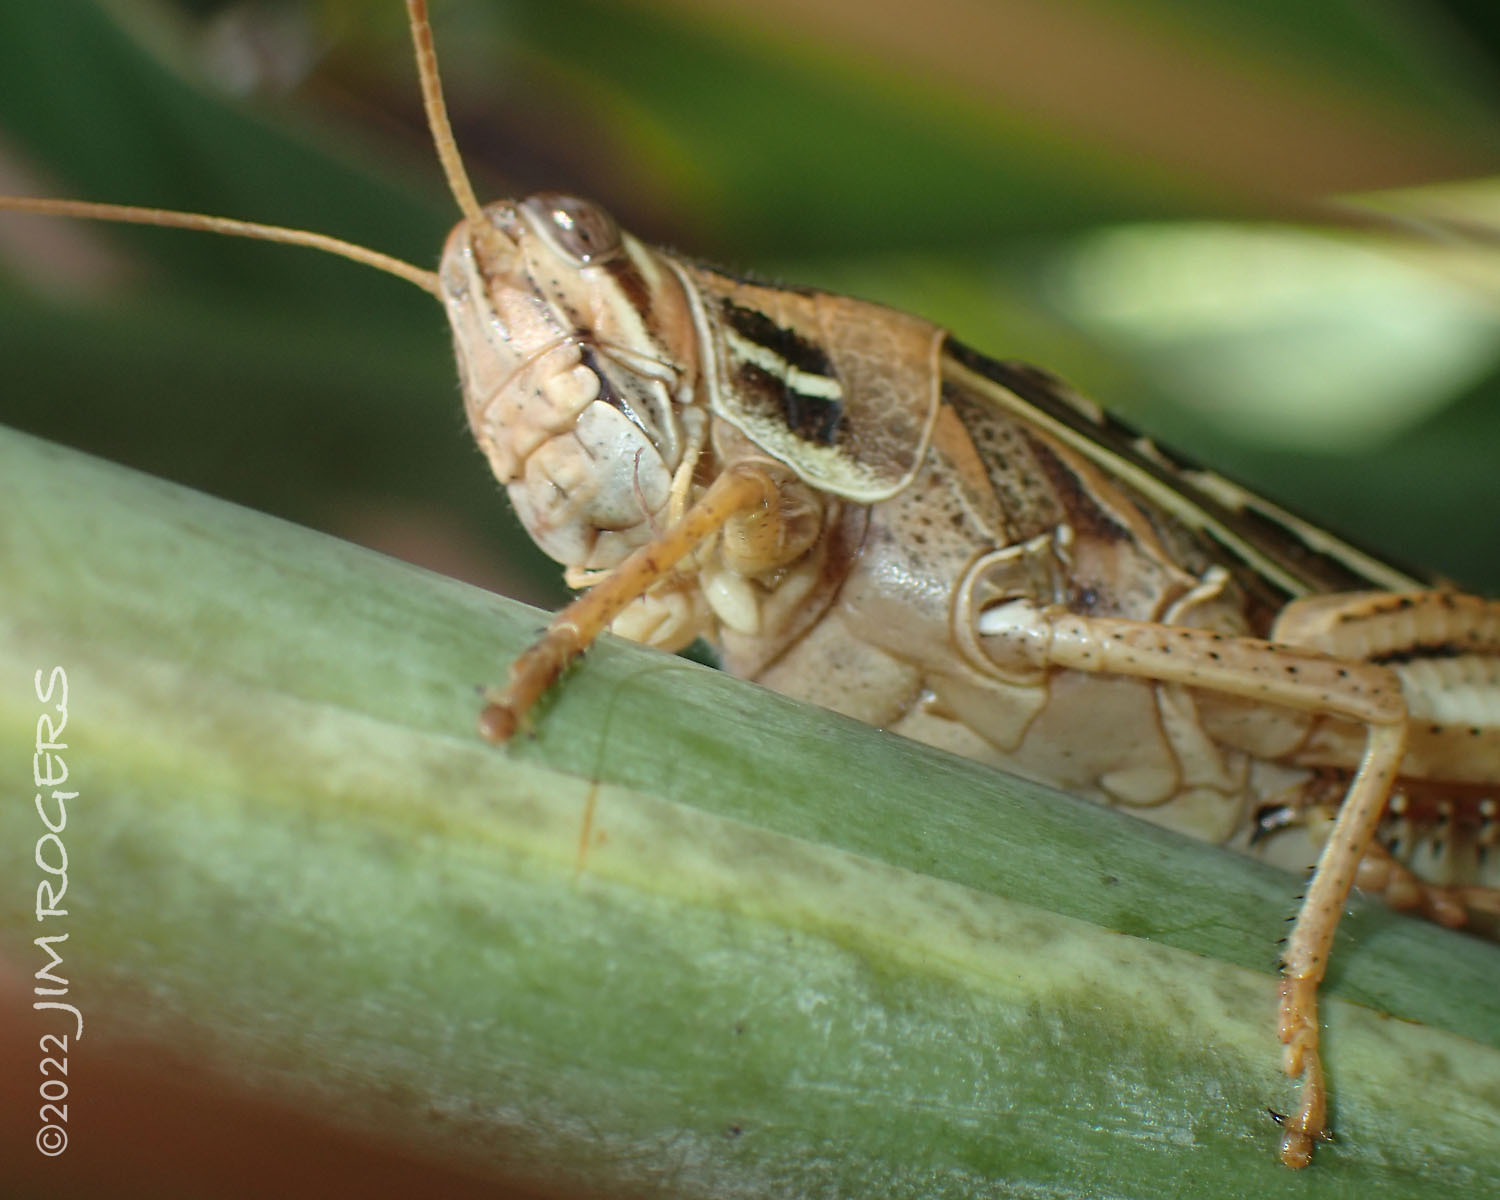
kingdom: Animalia
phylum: Arthropoda
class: Insecta
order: Orthoptera
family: Acrididae
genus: Schistocerca
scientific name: Schistocerca serialis
